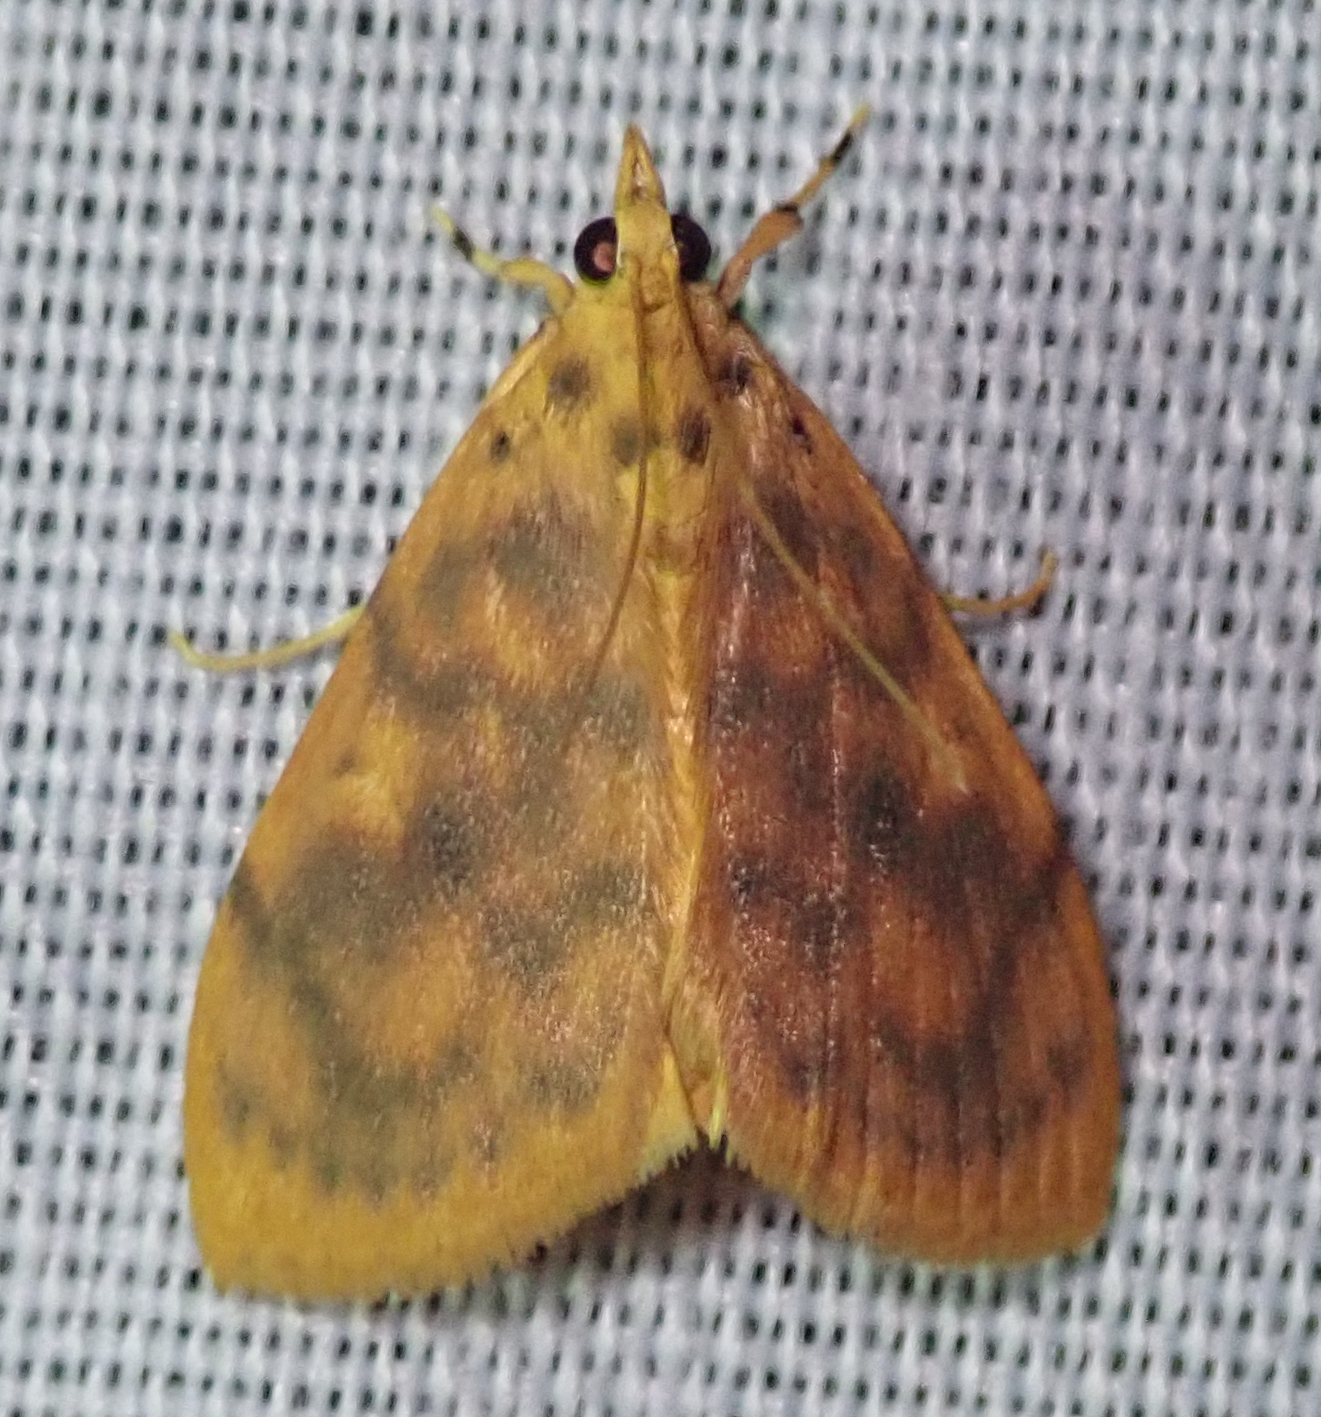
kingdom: Animalia
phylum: Arthropoda
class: Insecta
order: Lepidoptera
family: Crambidae
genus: Epipagis
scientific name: Epipagis olesialis
